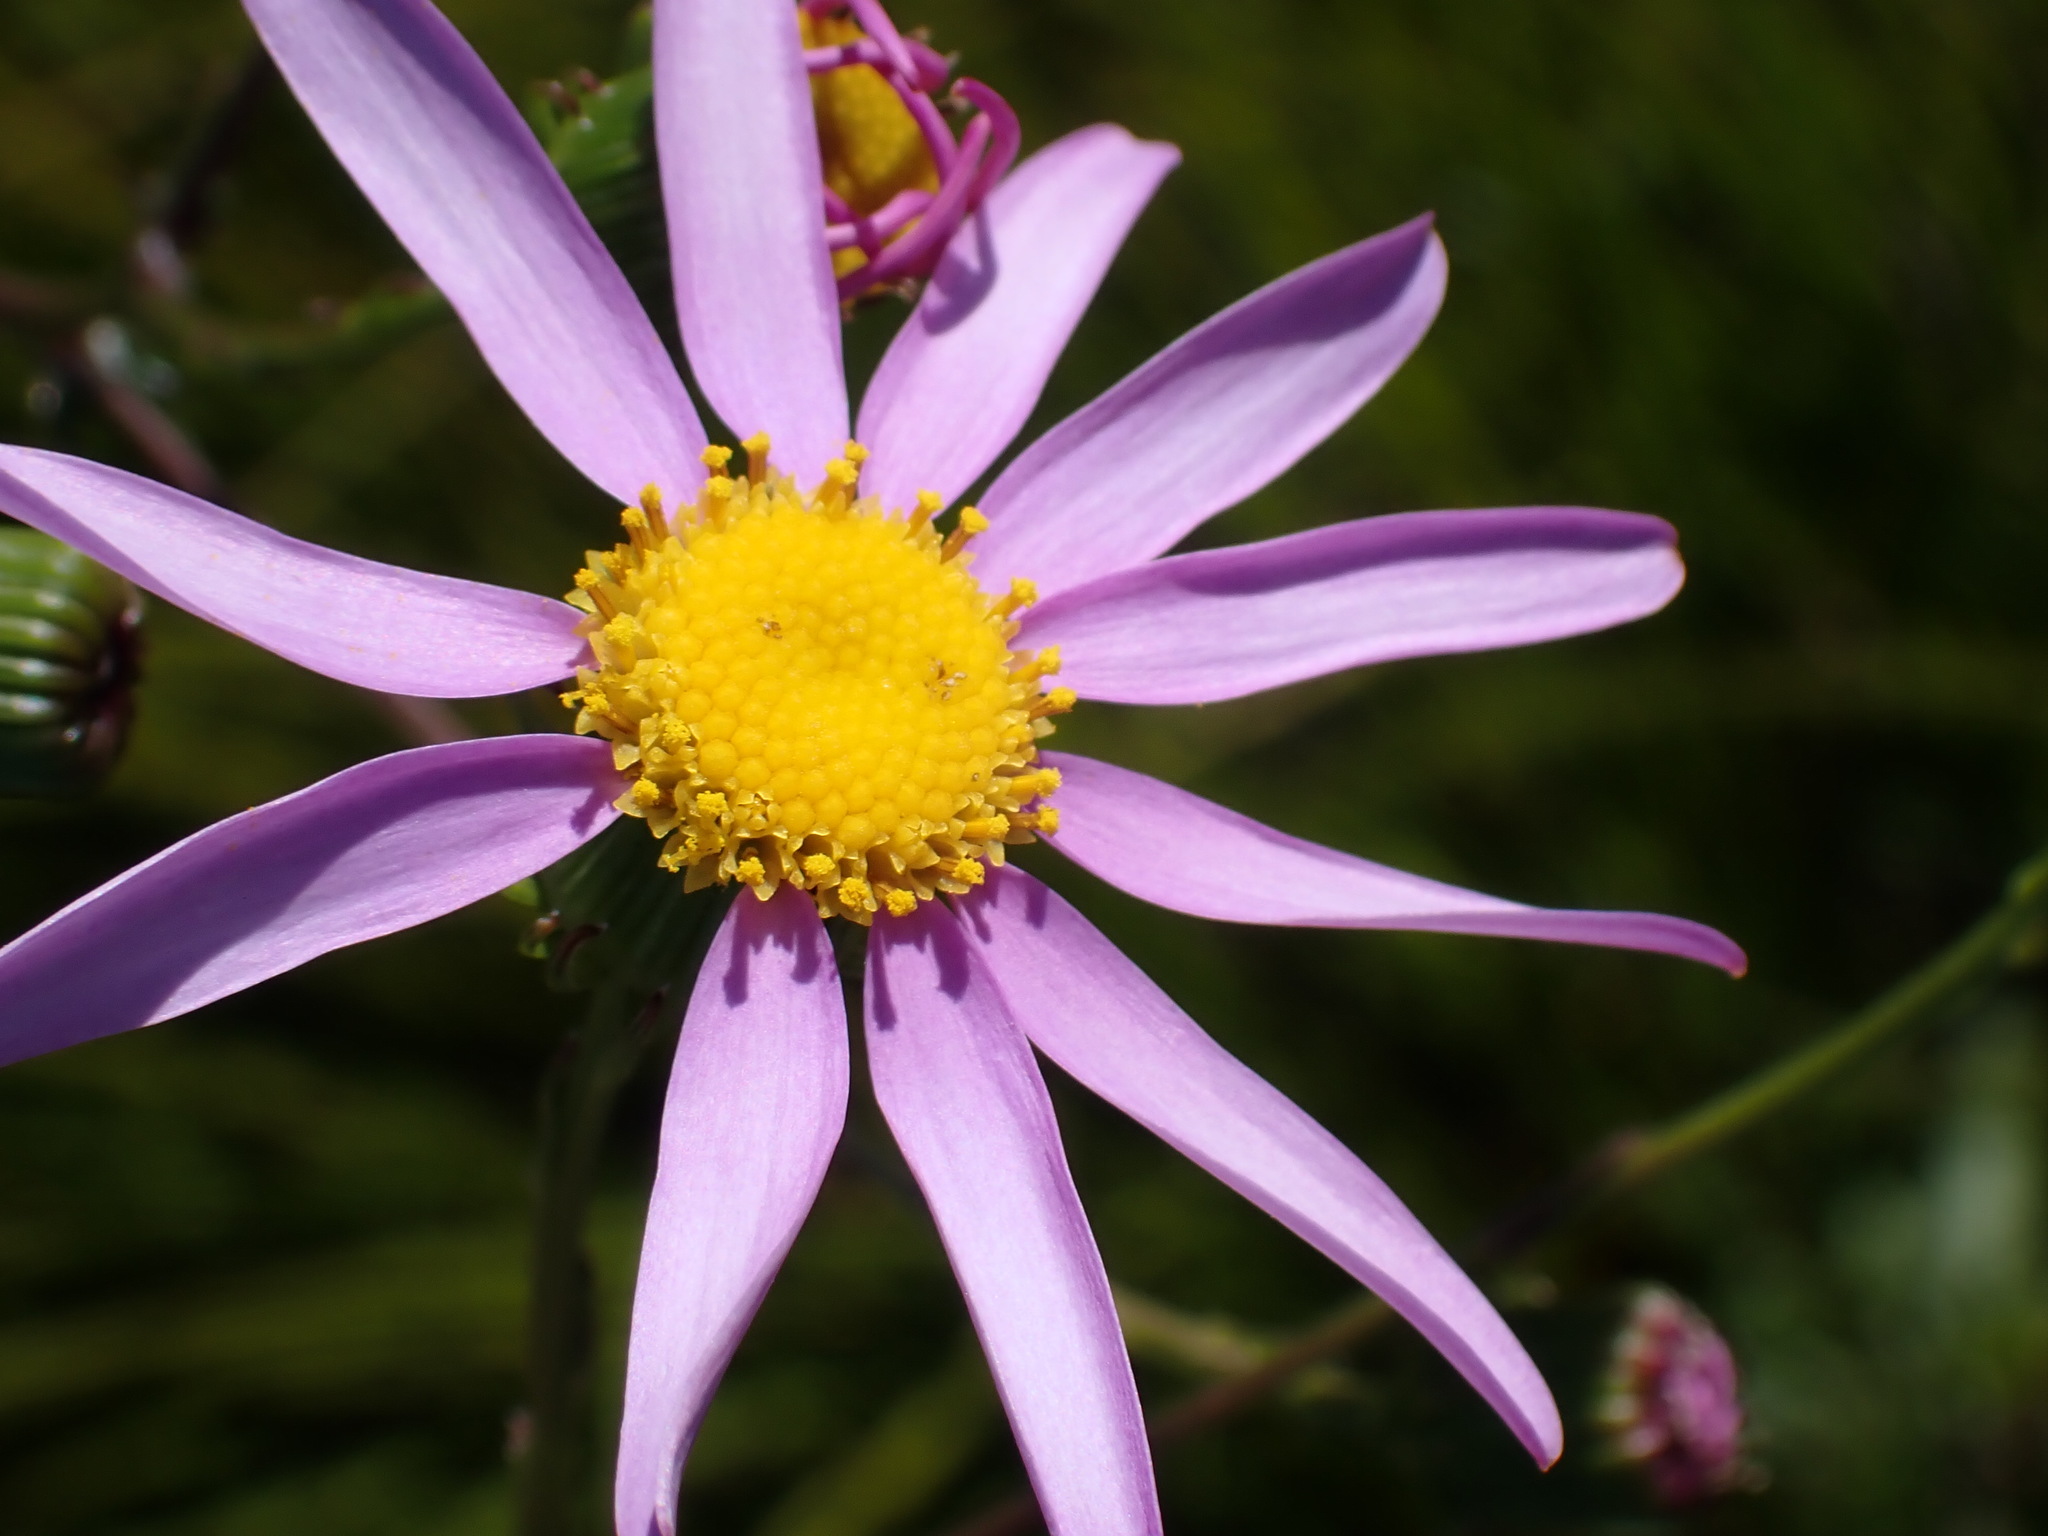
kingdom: Plantae
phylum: Tracheophyta
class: Magnoliopsida
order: Asterales
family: Asteraceae
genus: Senecio
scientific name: Senecio glastifolius
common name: Woad-leaved ragwort
